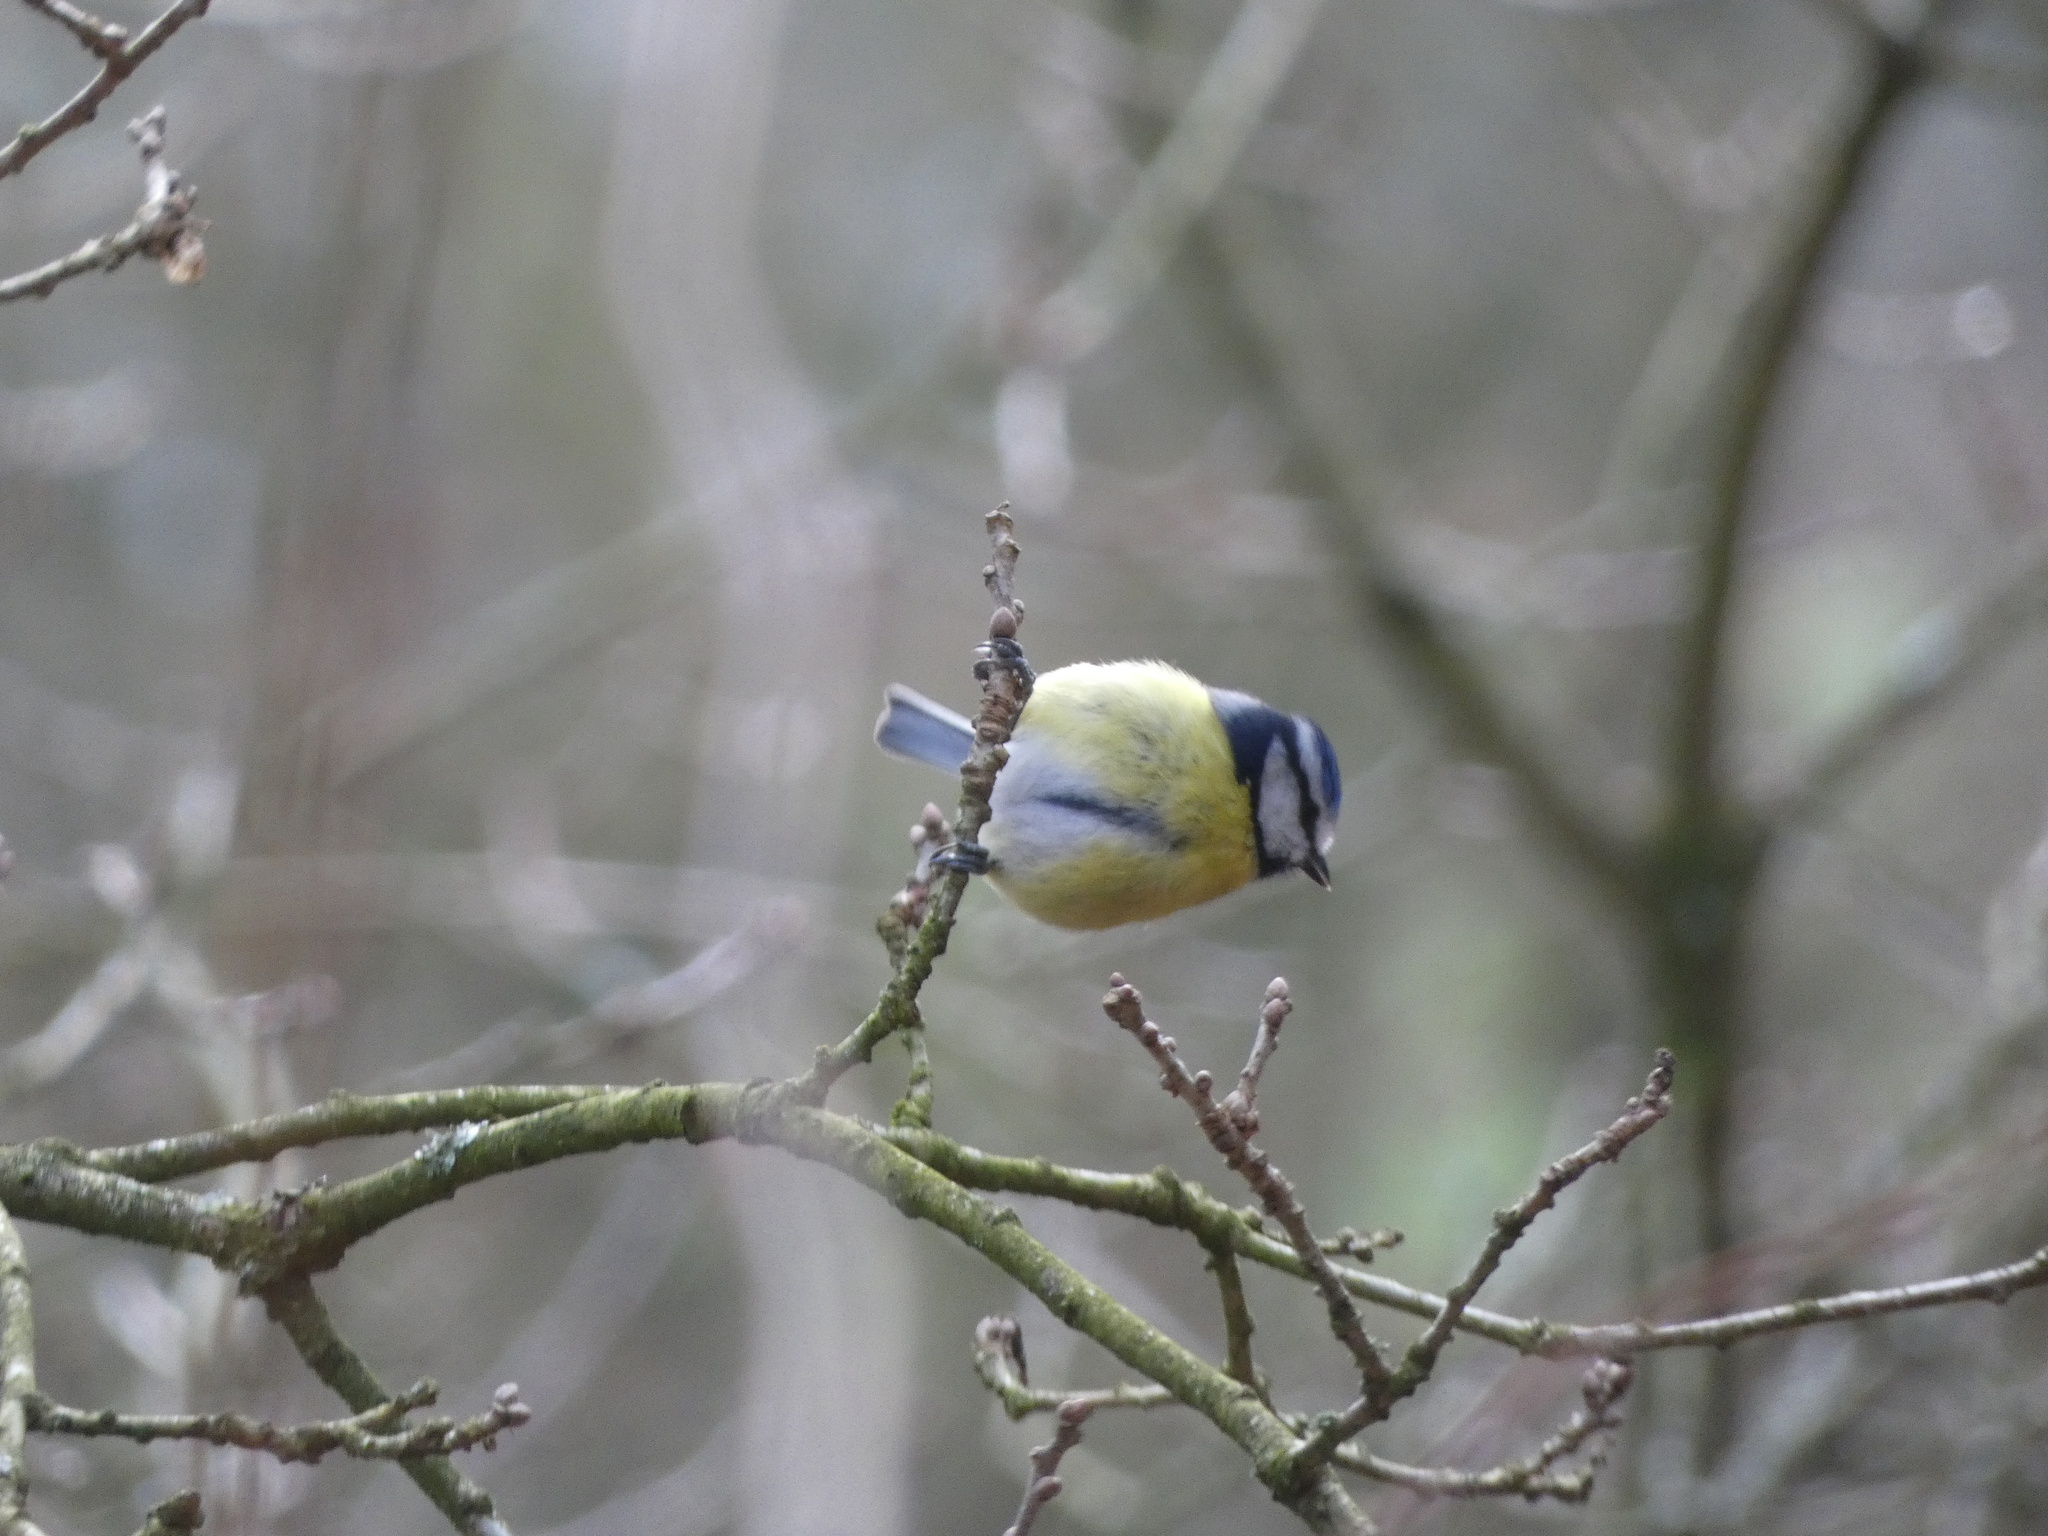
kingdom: Animalia
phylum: Chordata
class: Aves
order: Passeriformes
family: Paridae
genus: Cyanistes
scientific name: Cyanistes caeruleus
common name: Eurasian blue tit
